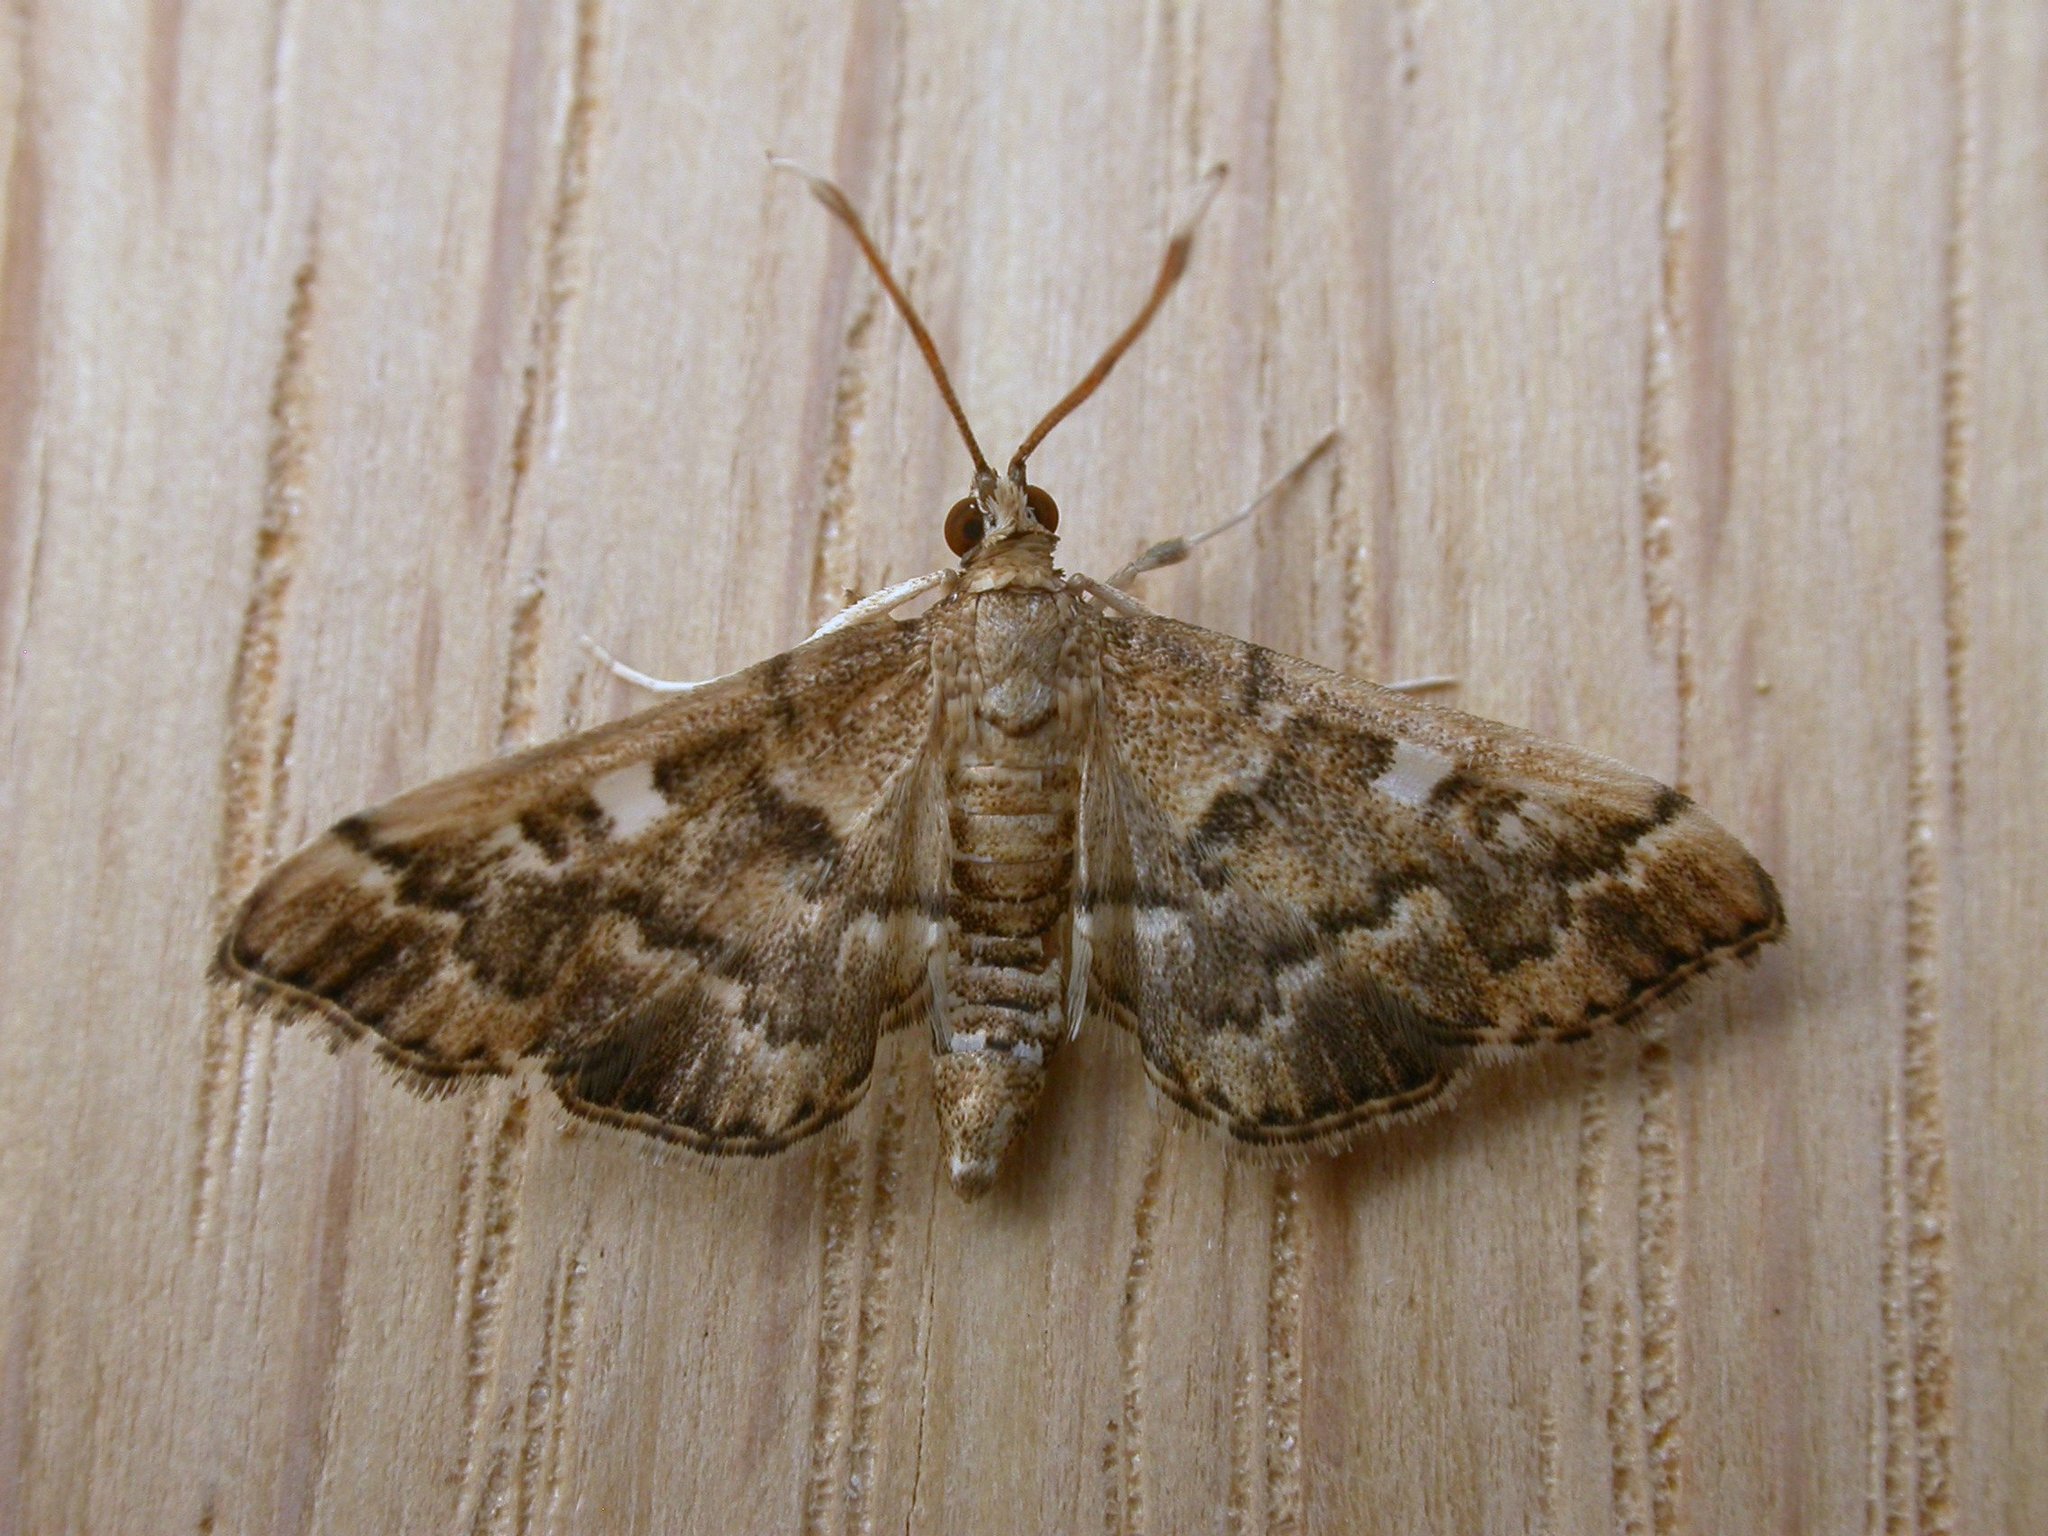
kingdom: Animalia
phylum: Arthropoda
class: Insecta
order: Lepidoptera
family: Crambidae
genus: Nacoleia
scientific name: Nacoleia rhoeoalis
